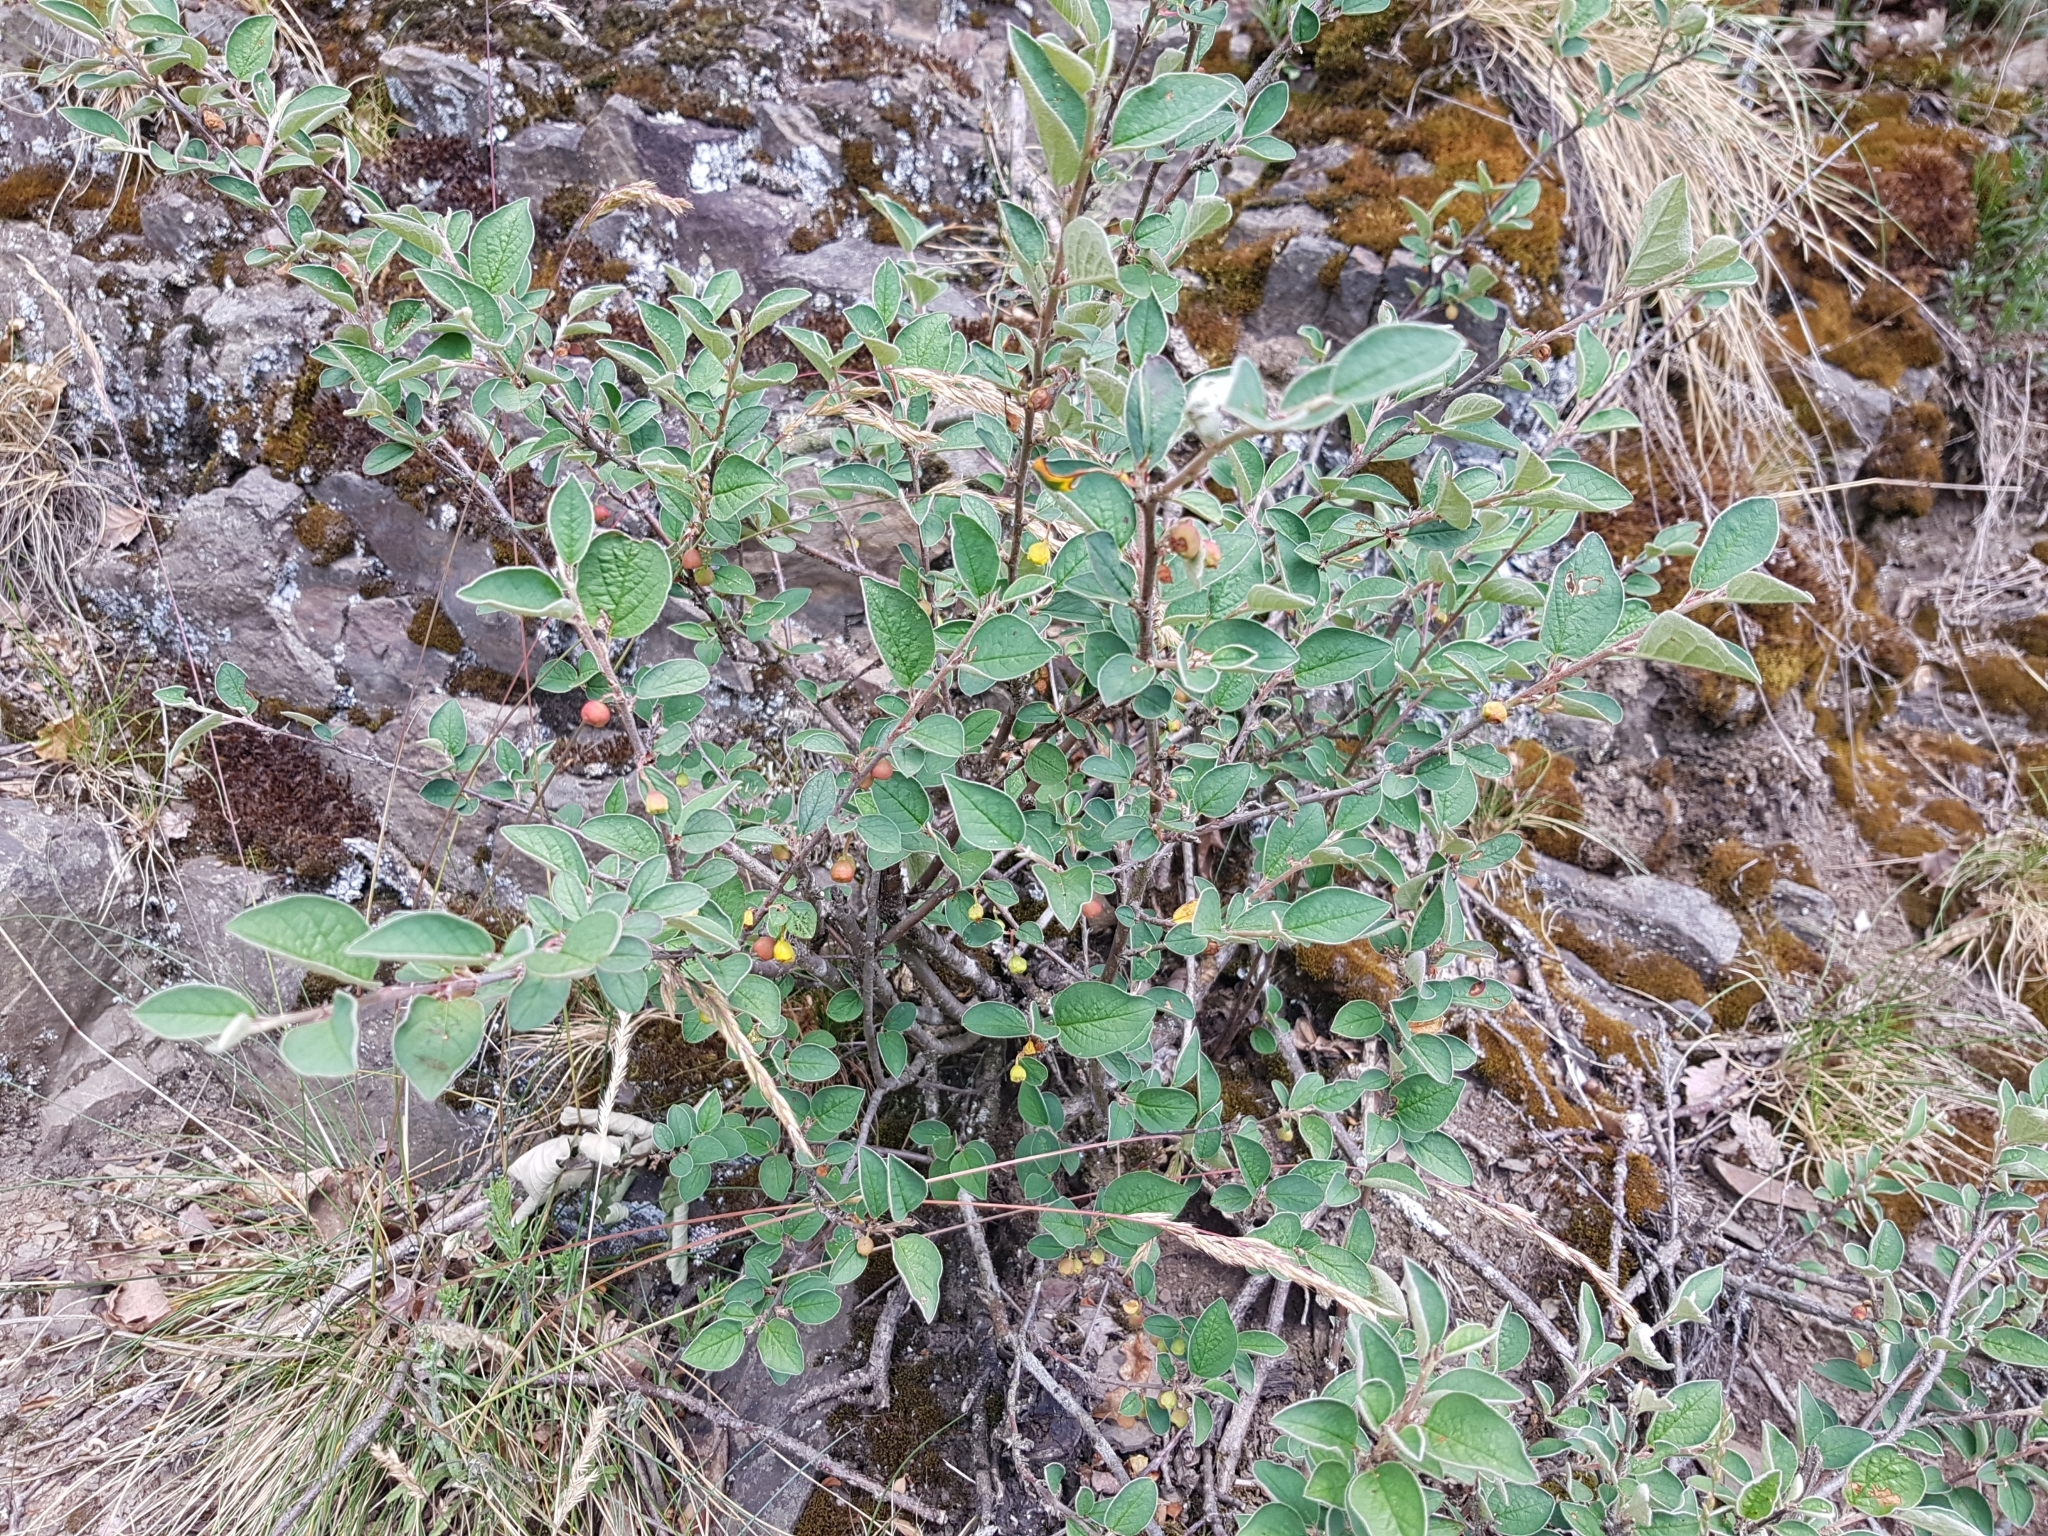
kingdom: Plantae
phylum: Tracheophyta
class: Magnoliopsida
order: Rosales
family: Rosaceae
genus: Cotoneaster
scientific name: Cotoneaster integerrimus
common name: Wild cotoneaster
